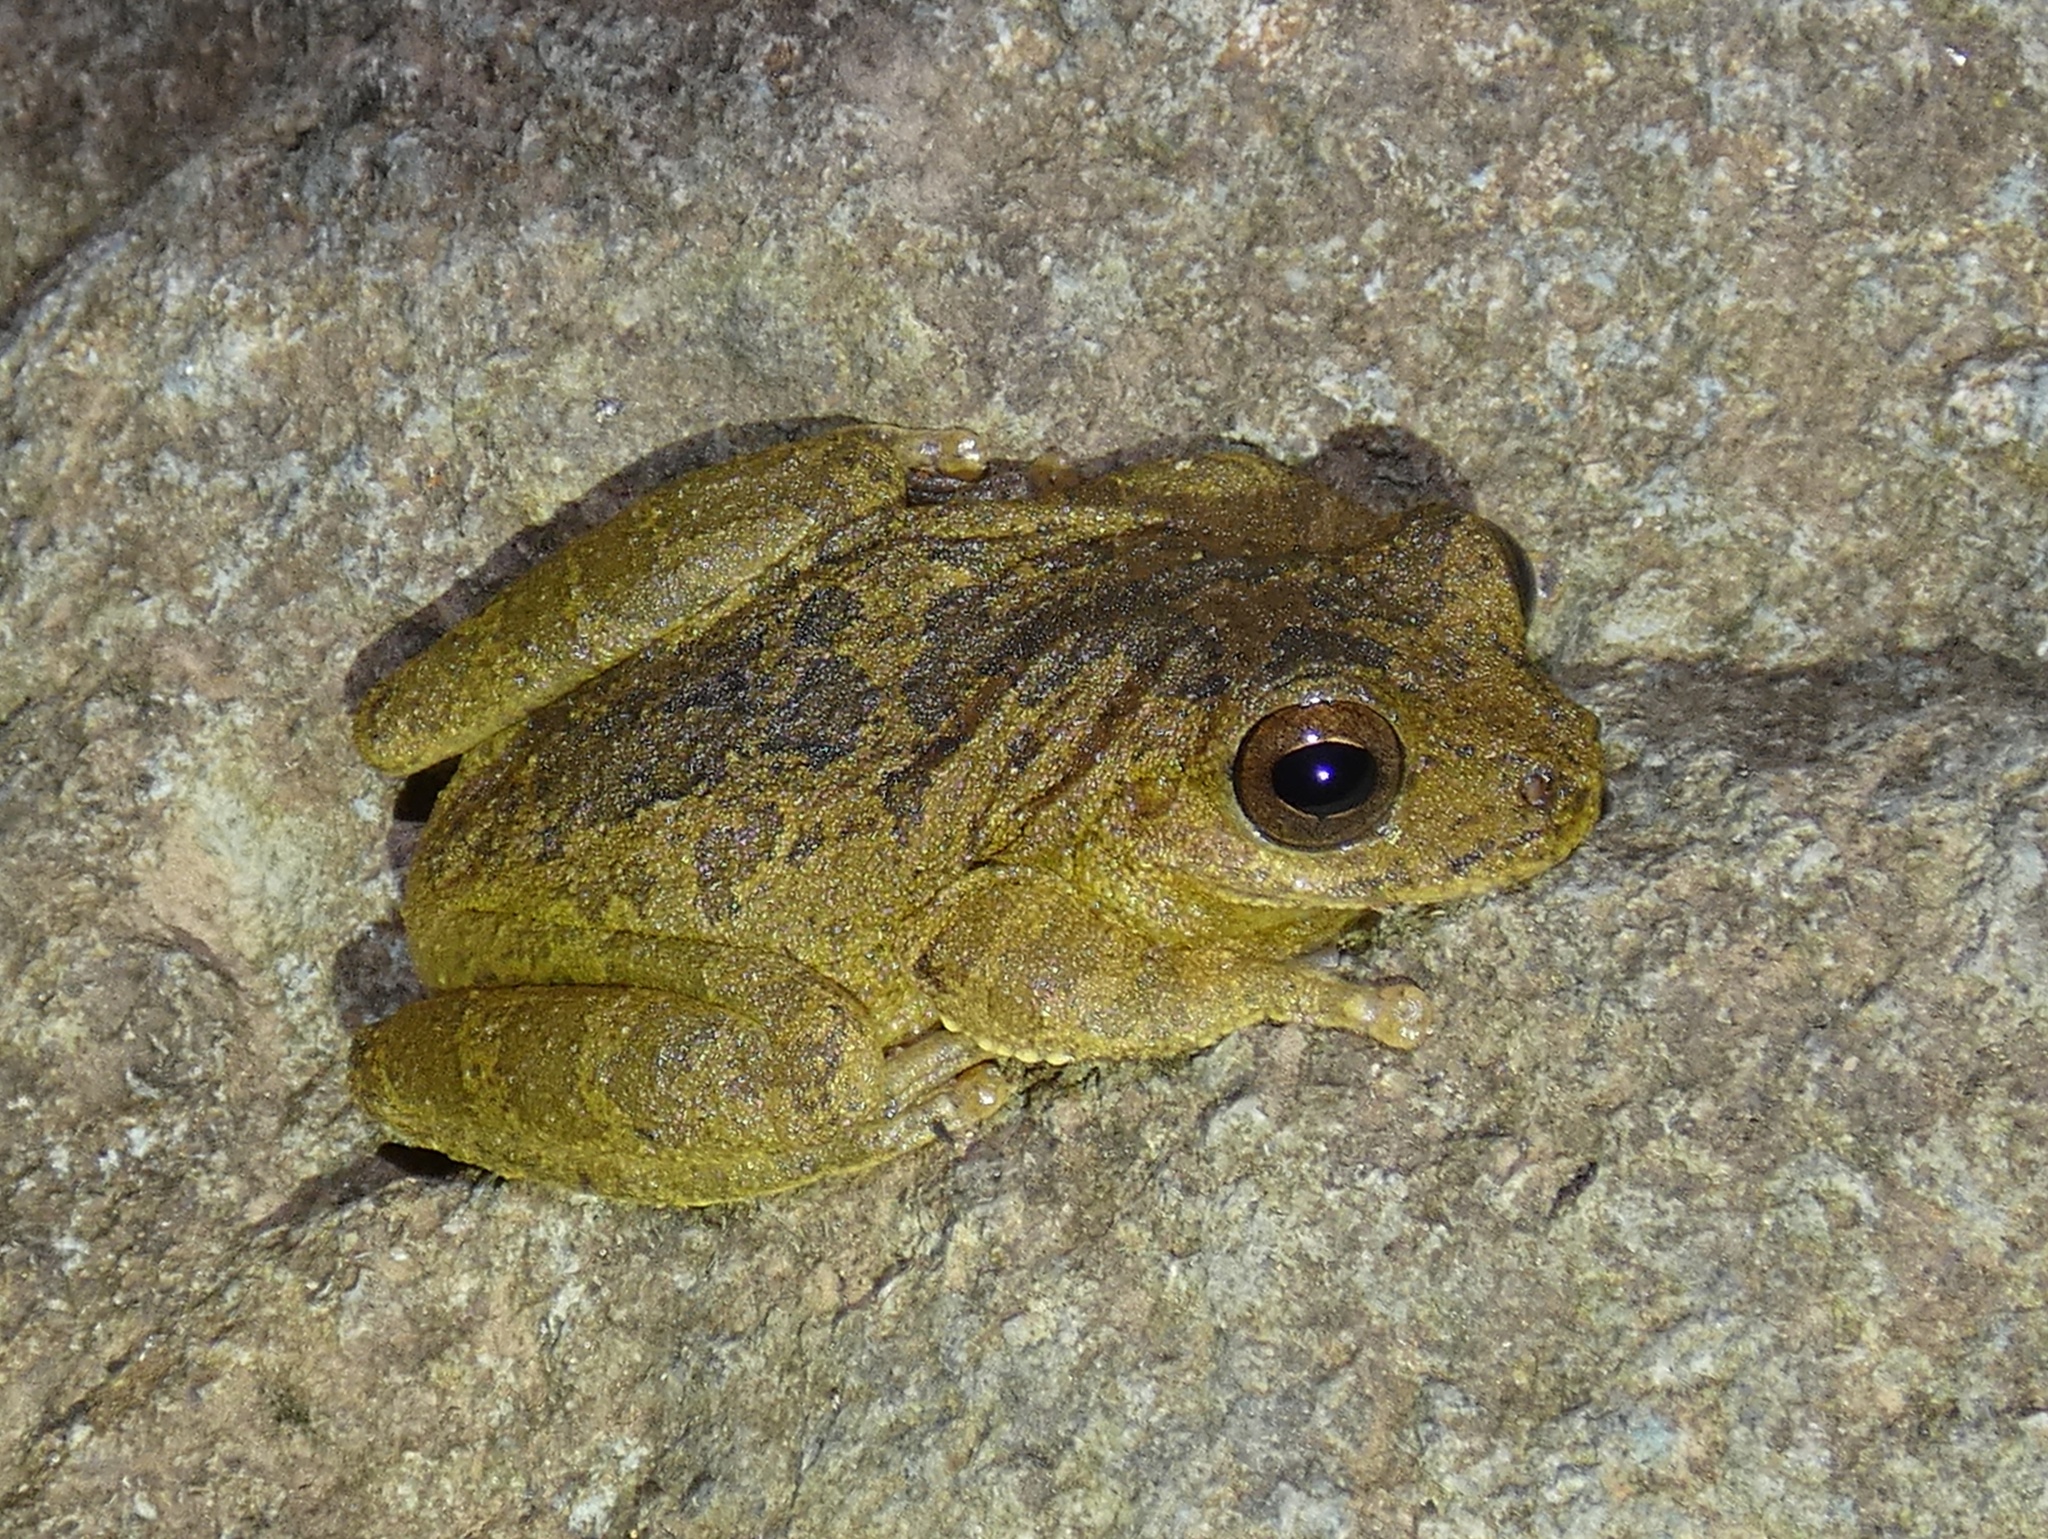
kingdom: Animalia
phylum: Chordata
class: Amphibia
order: Anura
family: Hylidae
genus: Smilisca
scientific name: Smilisca sila
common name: Panama cross-banded treefrog
